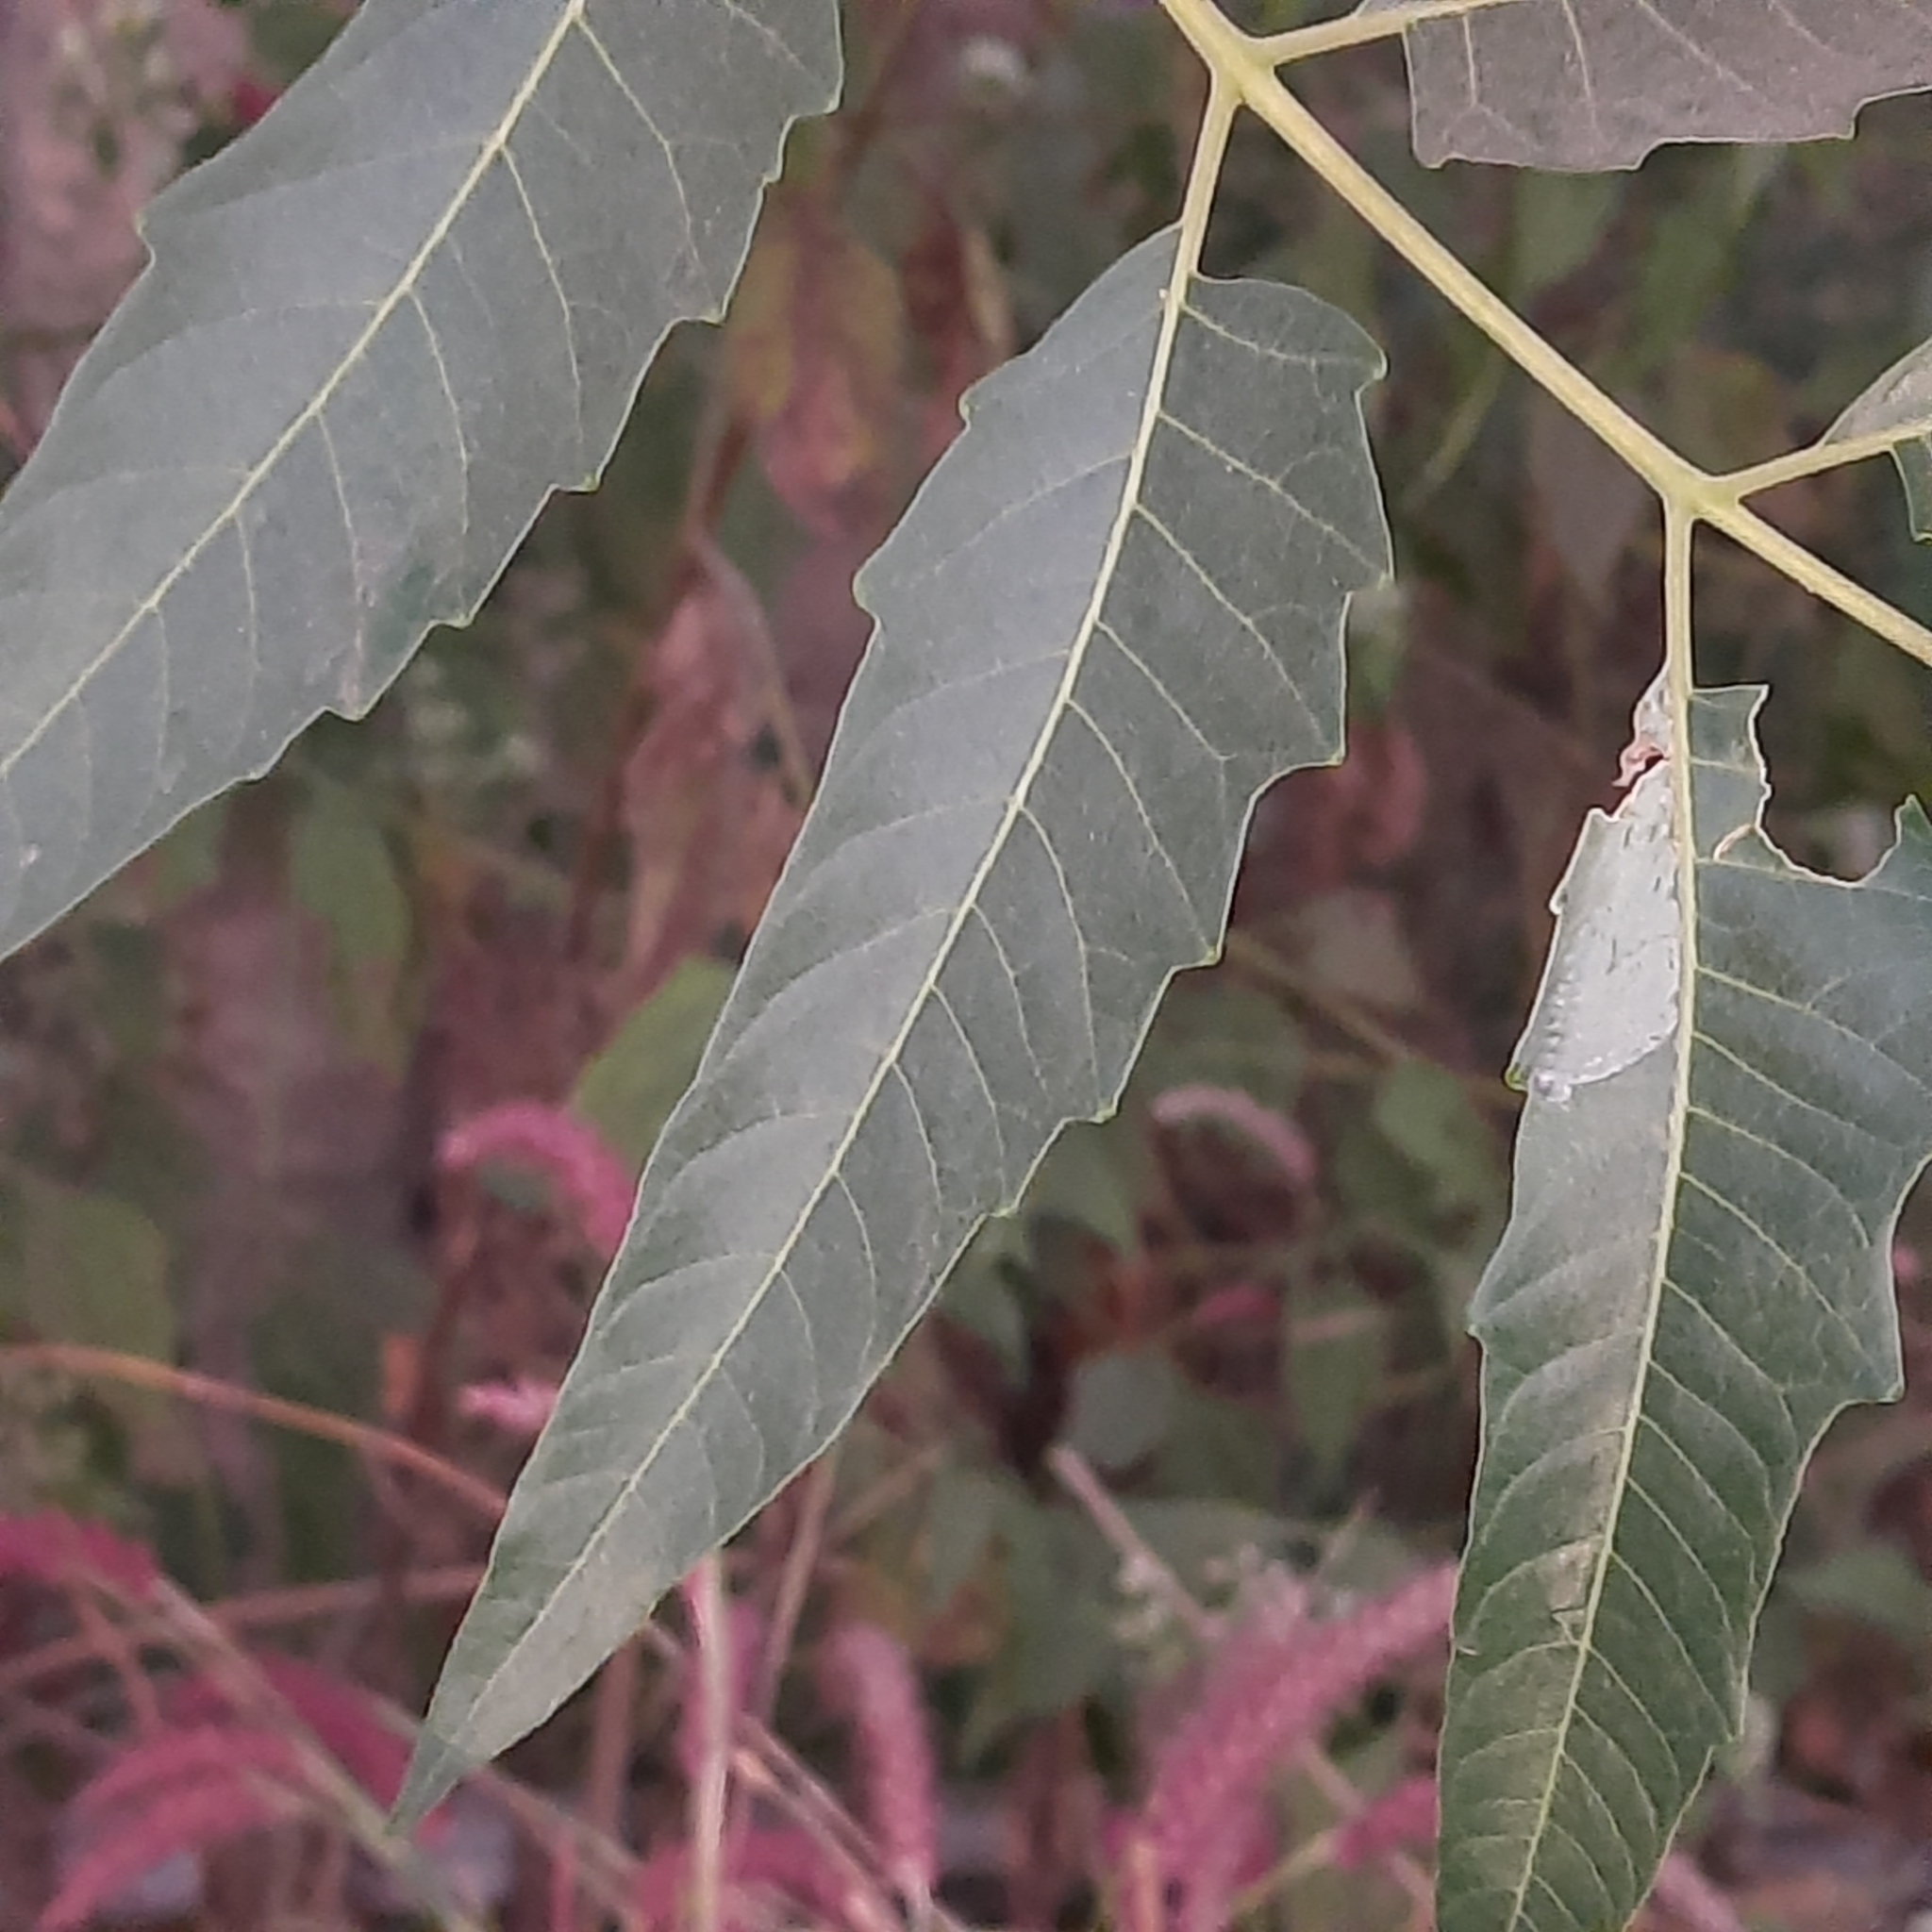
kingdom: Plantae
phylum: Tracheophyta
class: Magnoliopsida
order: Sapindales
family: Simaroubaceae
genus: Ailanthus
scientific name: Ailanthus excelsa
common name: Indian tree-of-heaven
